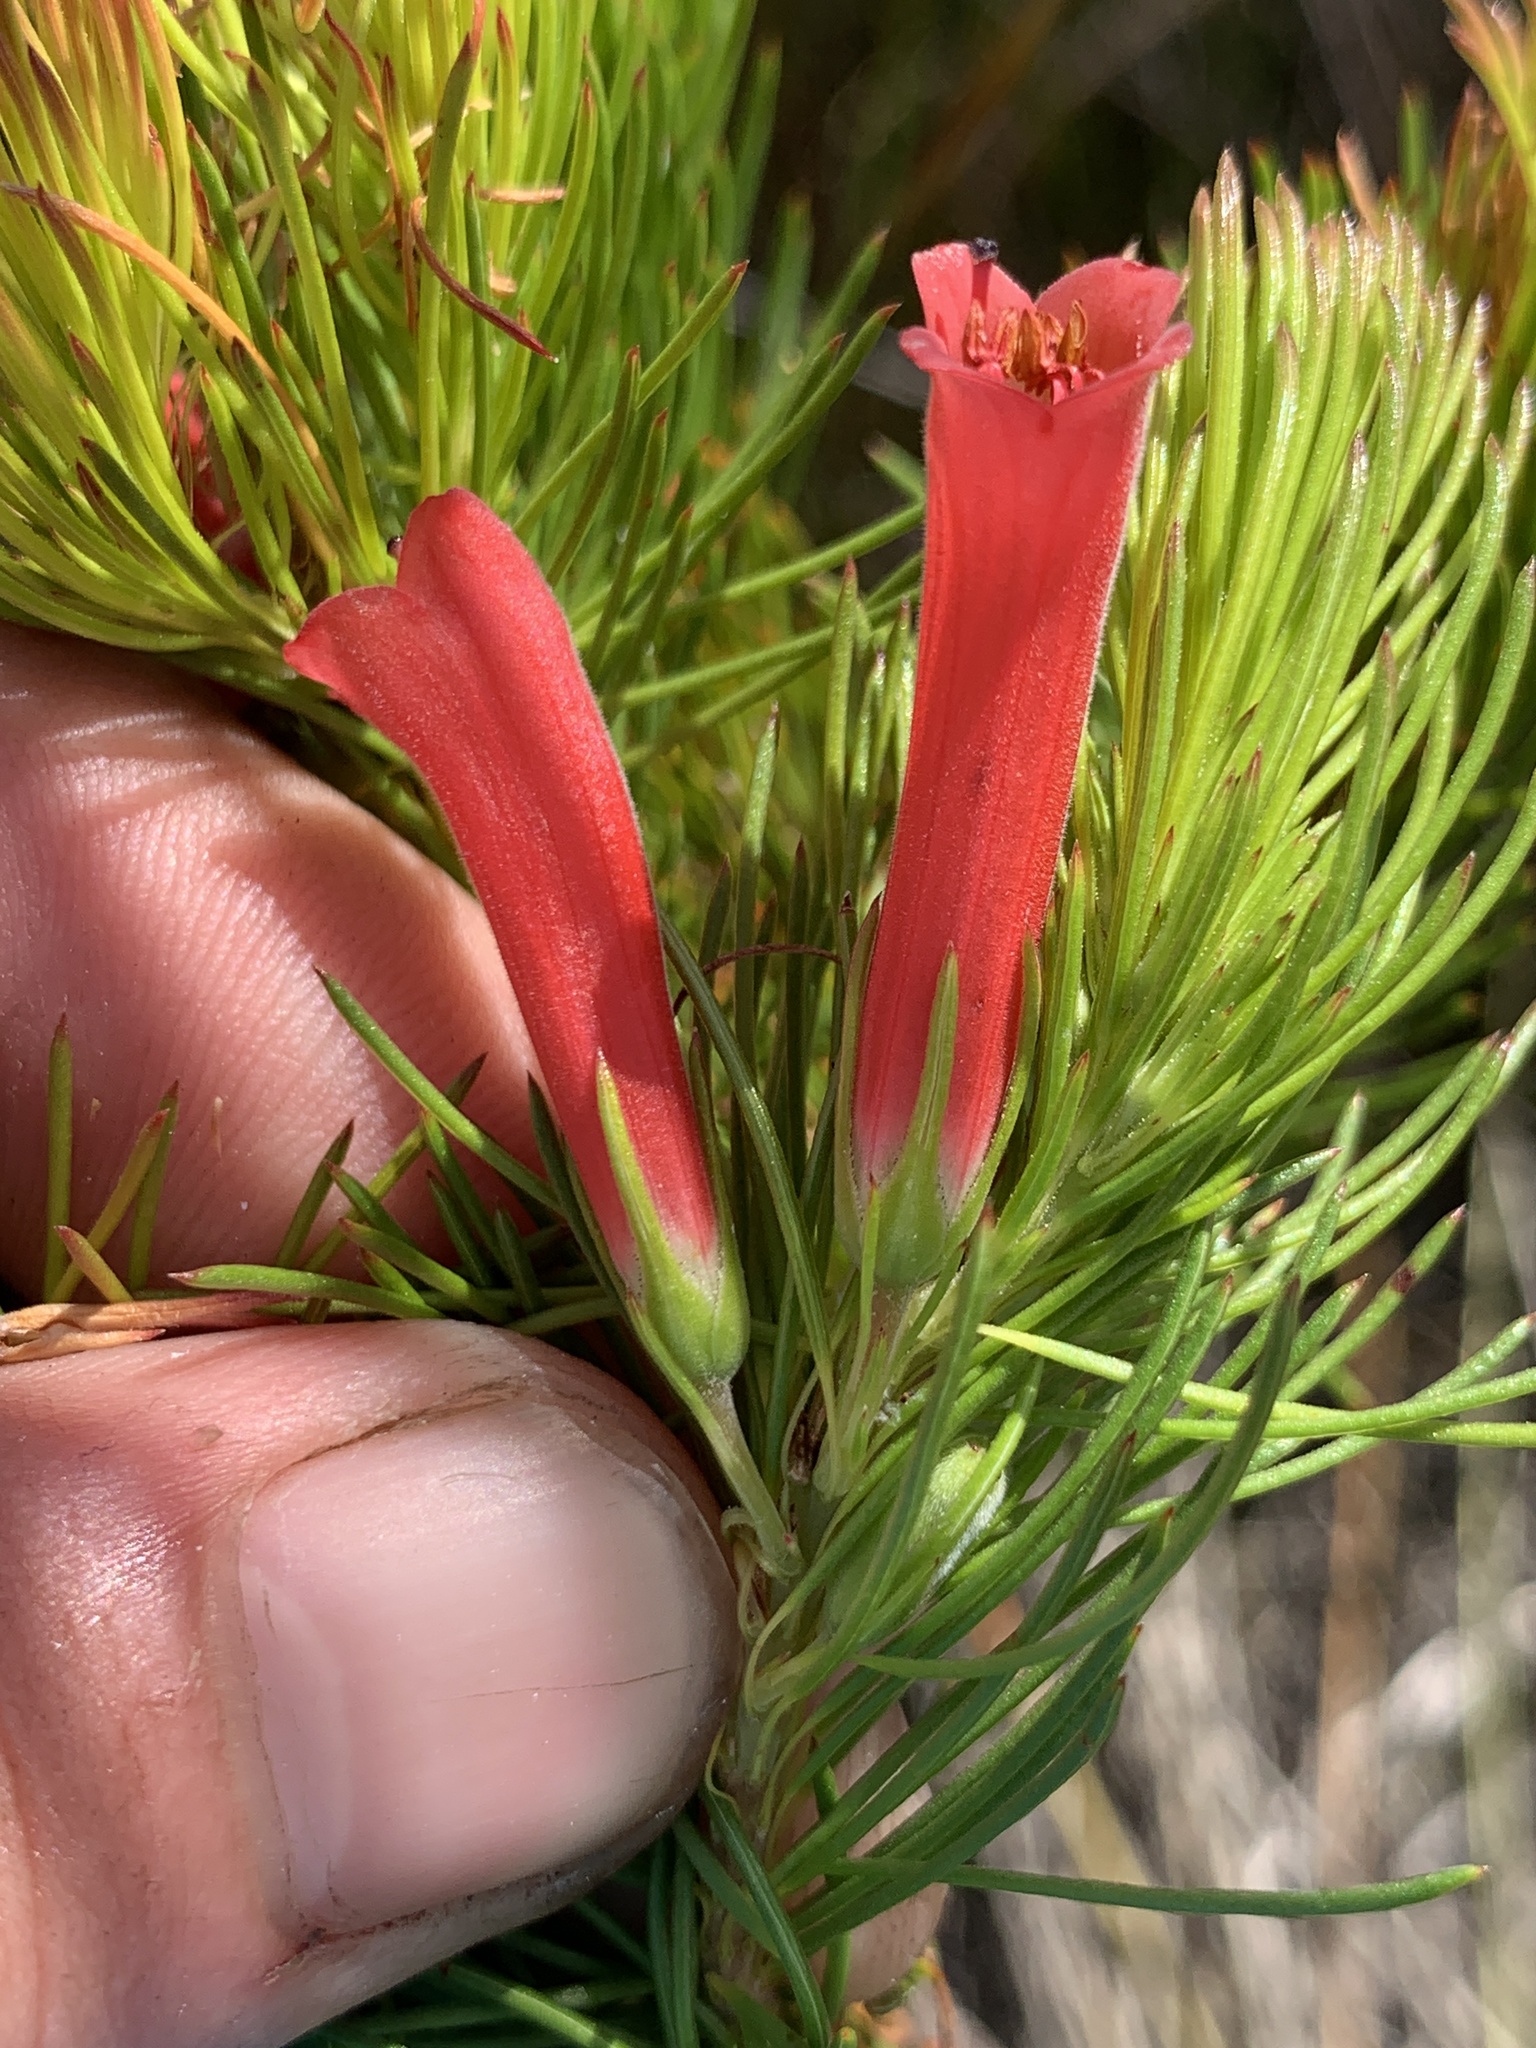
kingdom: Plantae
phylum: Tracheophyta
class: Magnoliopsida
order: Ericales
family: Ericaceae
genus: Erica
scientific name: Erica vestita
